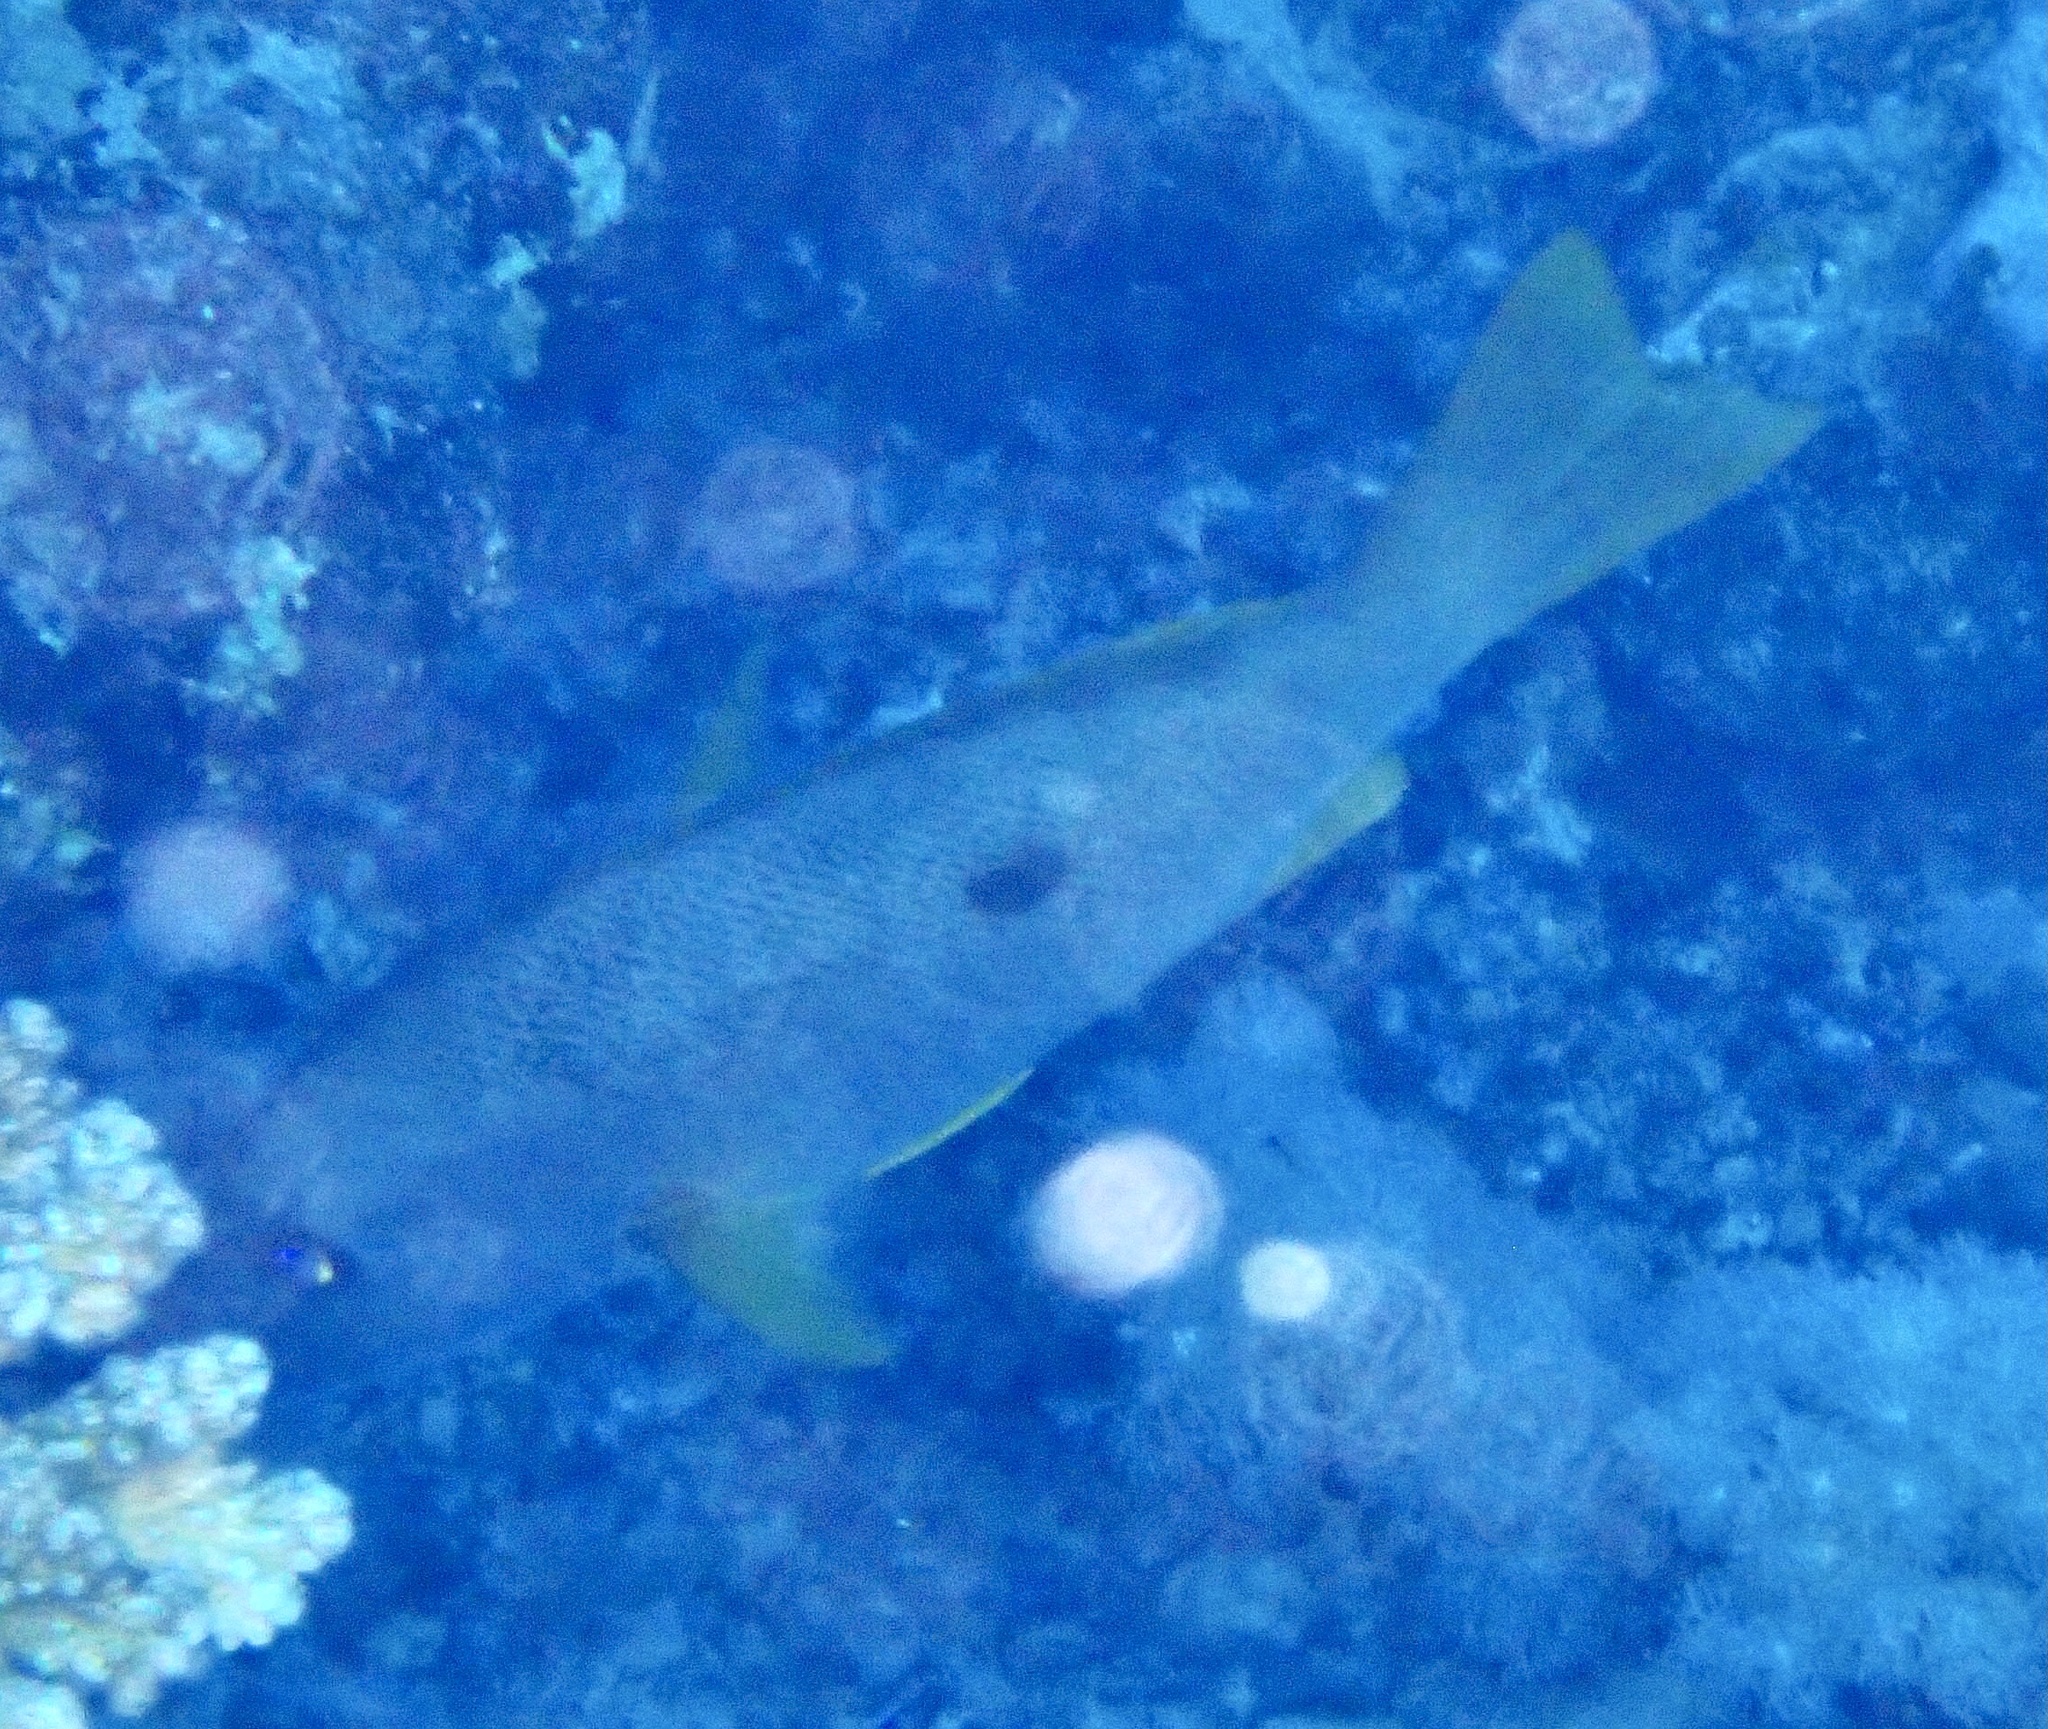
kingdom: Animalia
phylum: Chordata
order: Perciformes
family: Lutjanidae
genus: Lutjanus
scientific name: Lutjanus ehrenbergii
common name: Blackspot snapper
